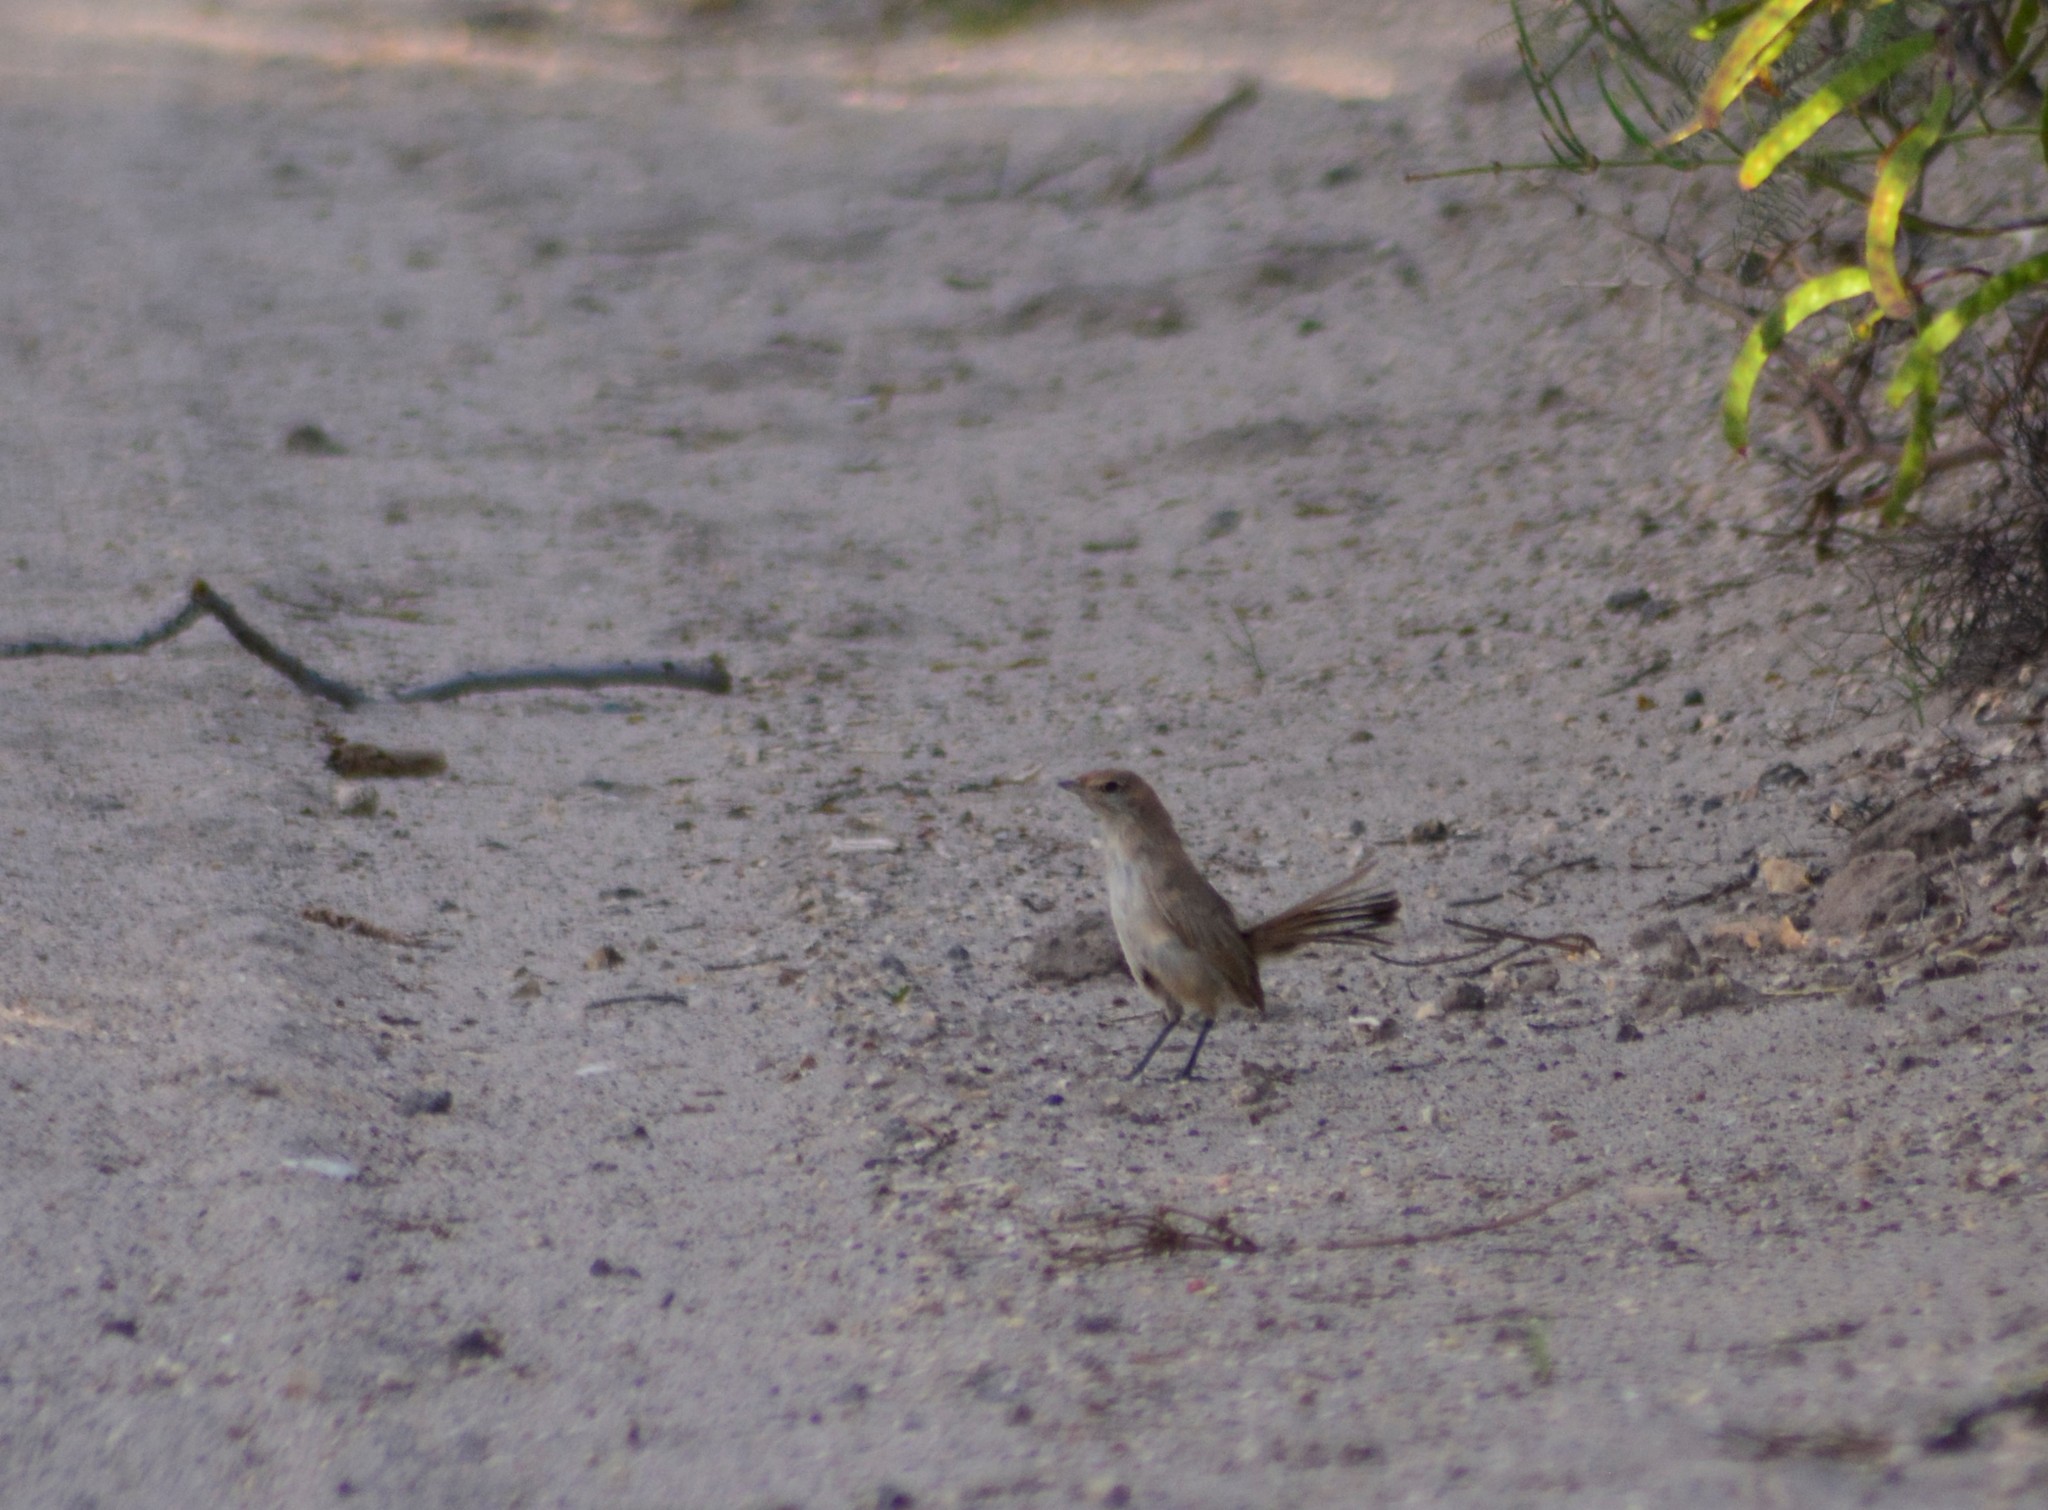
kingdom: Animalia
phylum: Chordata
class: Aves
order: Passeriformes
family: Rhinocryptidae
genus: Teledromas
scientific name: Teledromas fuscus
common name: Sandy gallito
